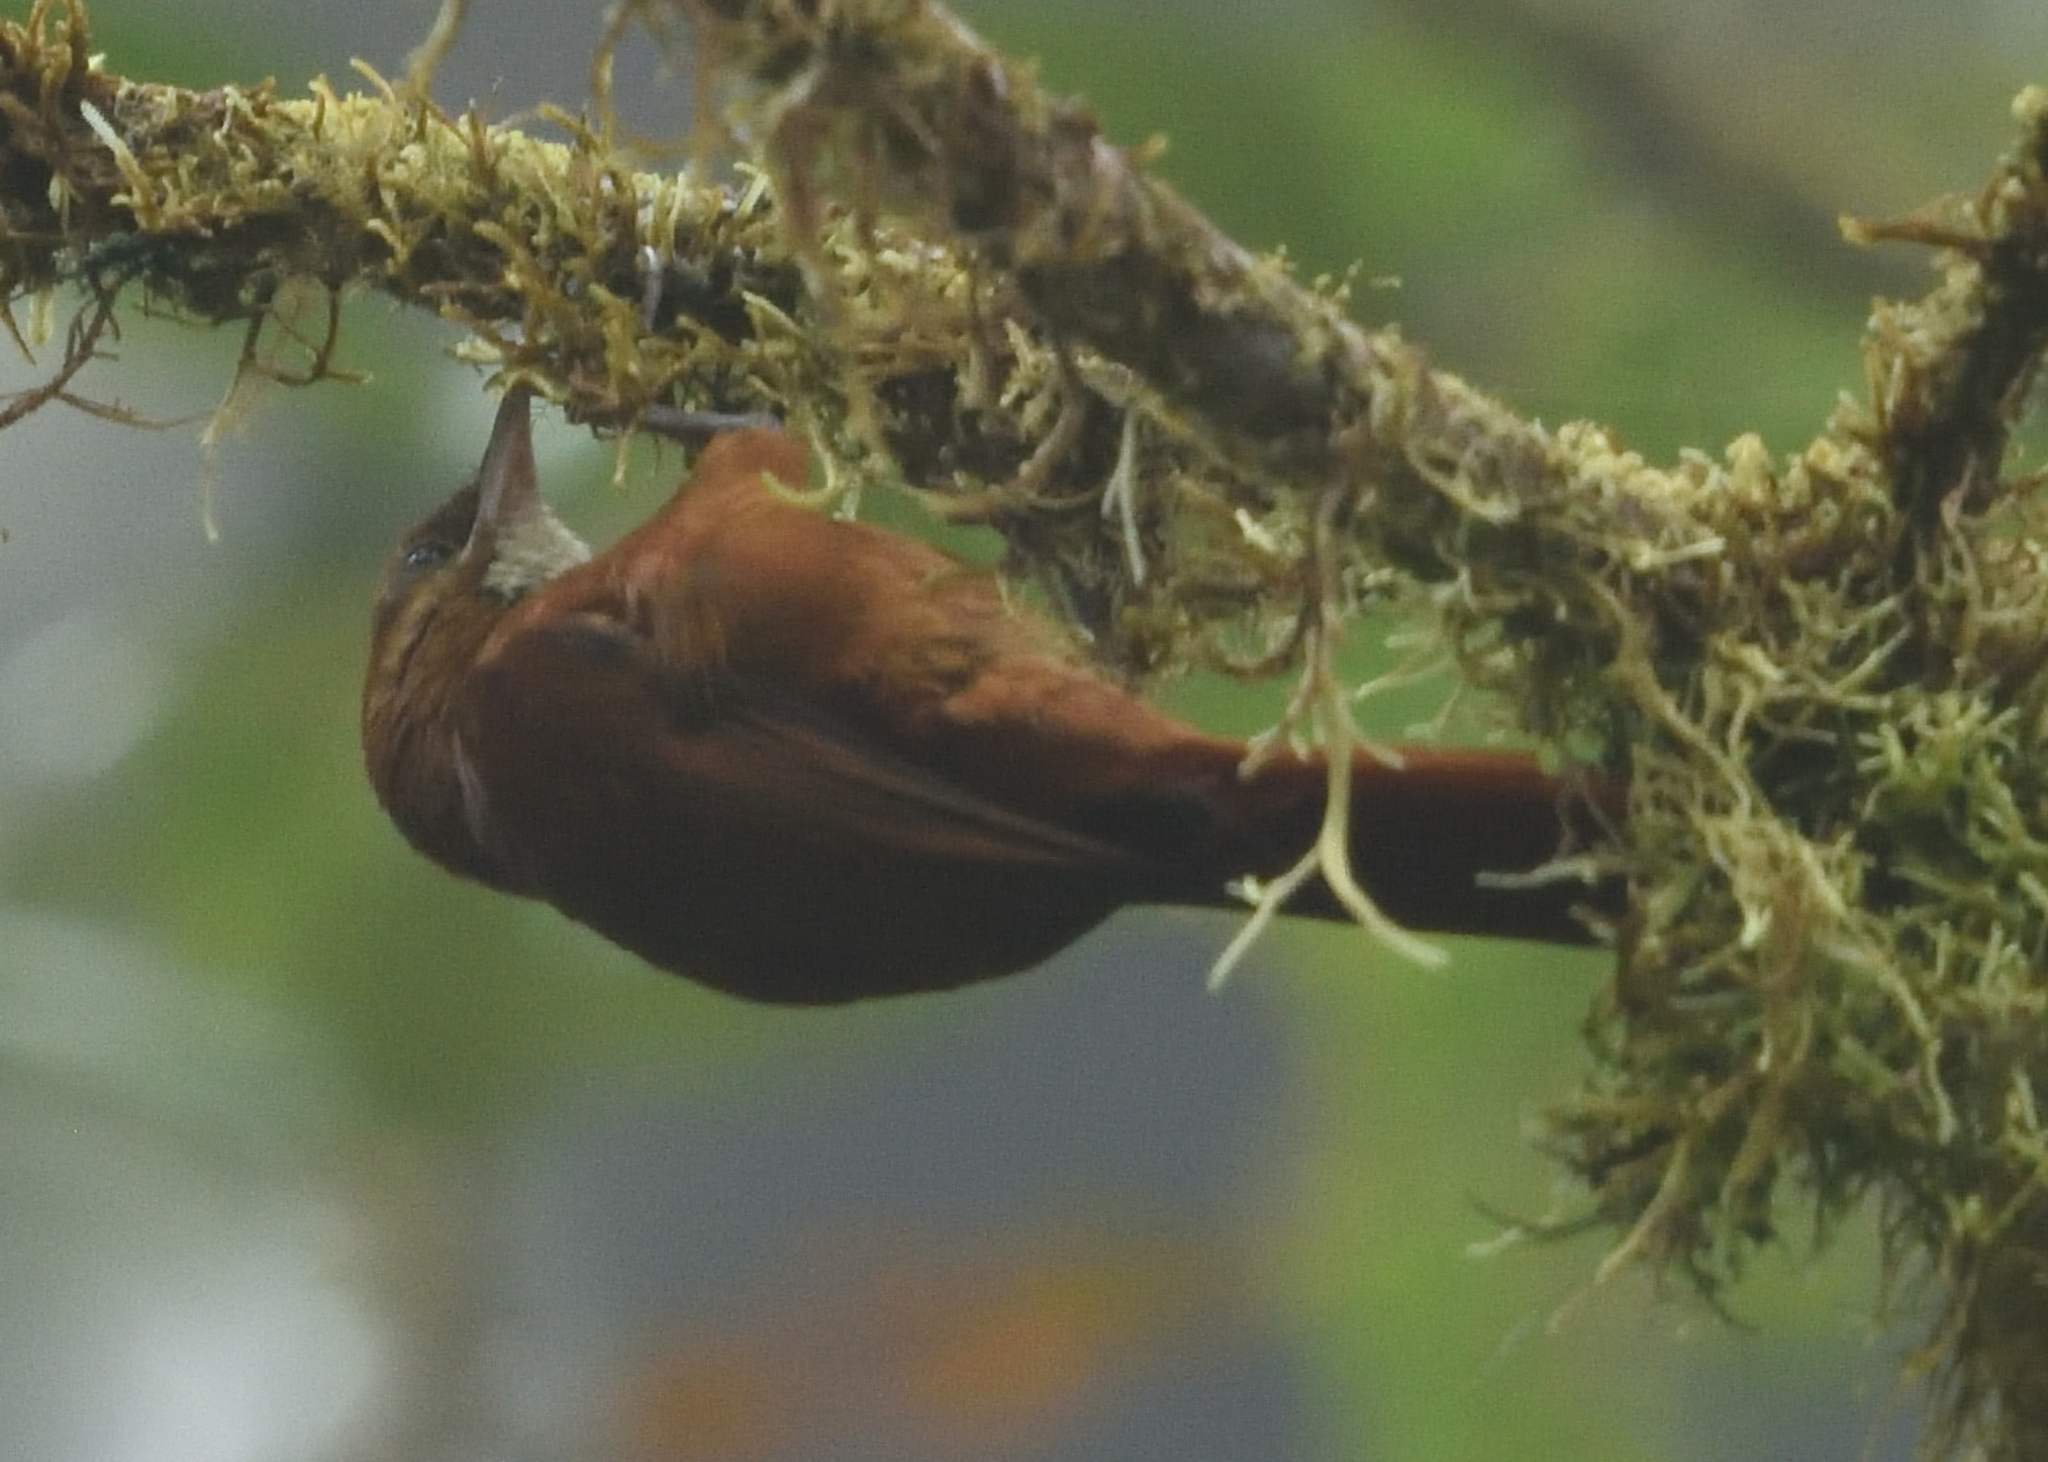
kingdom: Animalia
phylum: Chordata
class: Aves
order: Passeriformes
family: Furnariidae
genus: Margarornis
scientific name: Margarornis stellatus
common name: Star-chested treerunner
